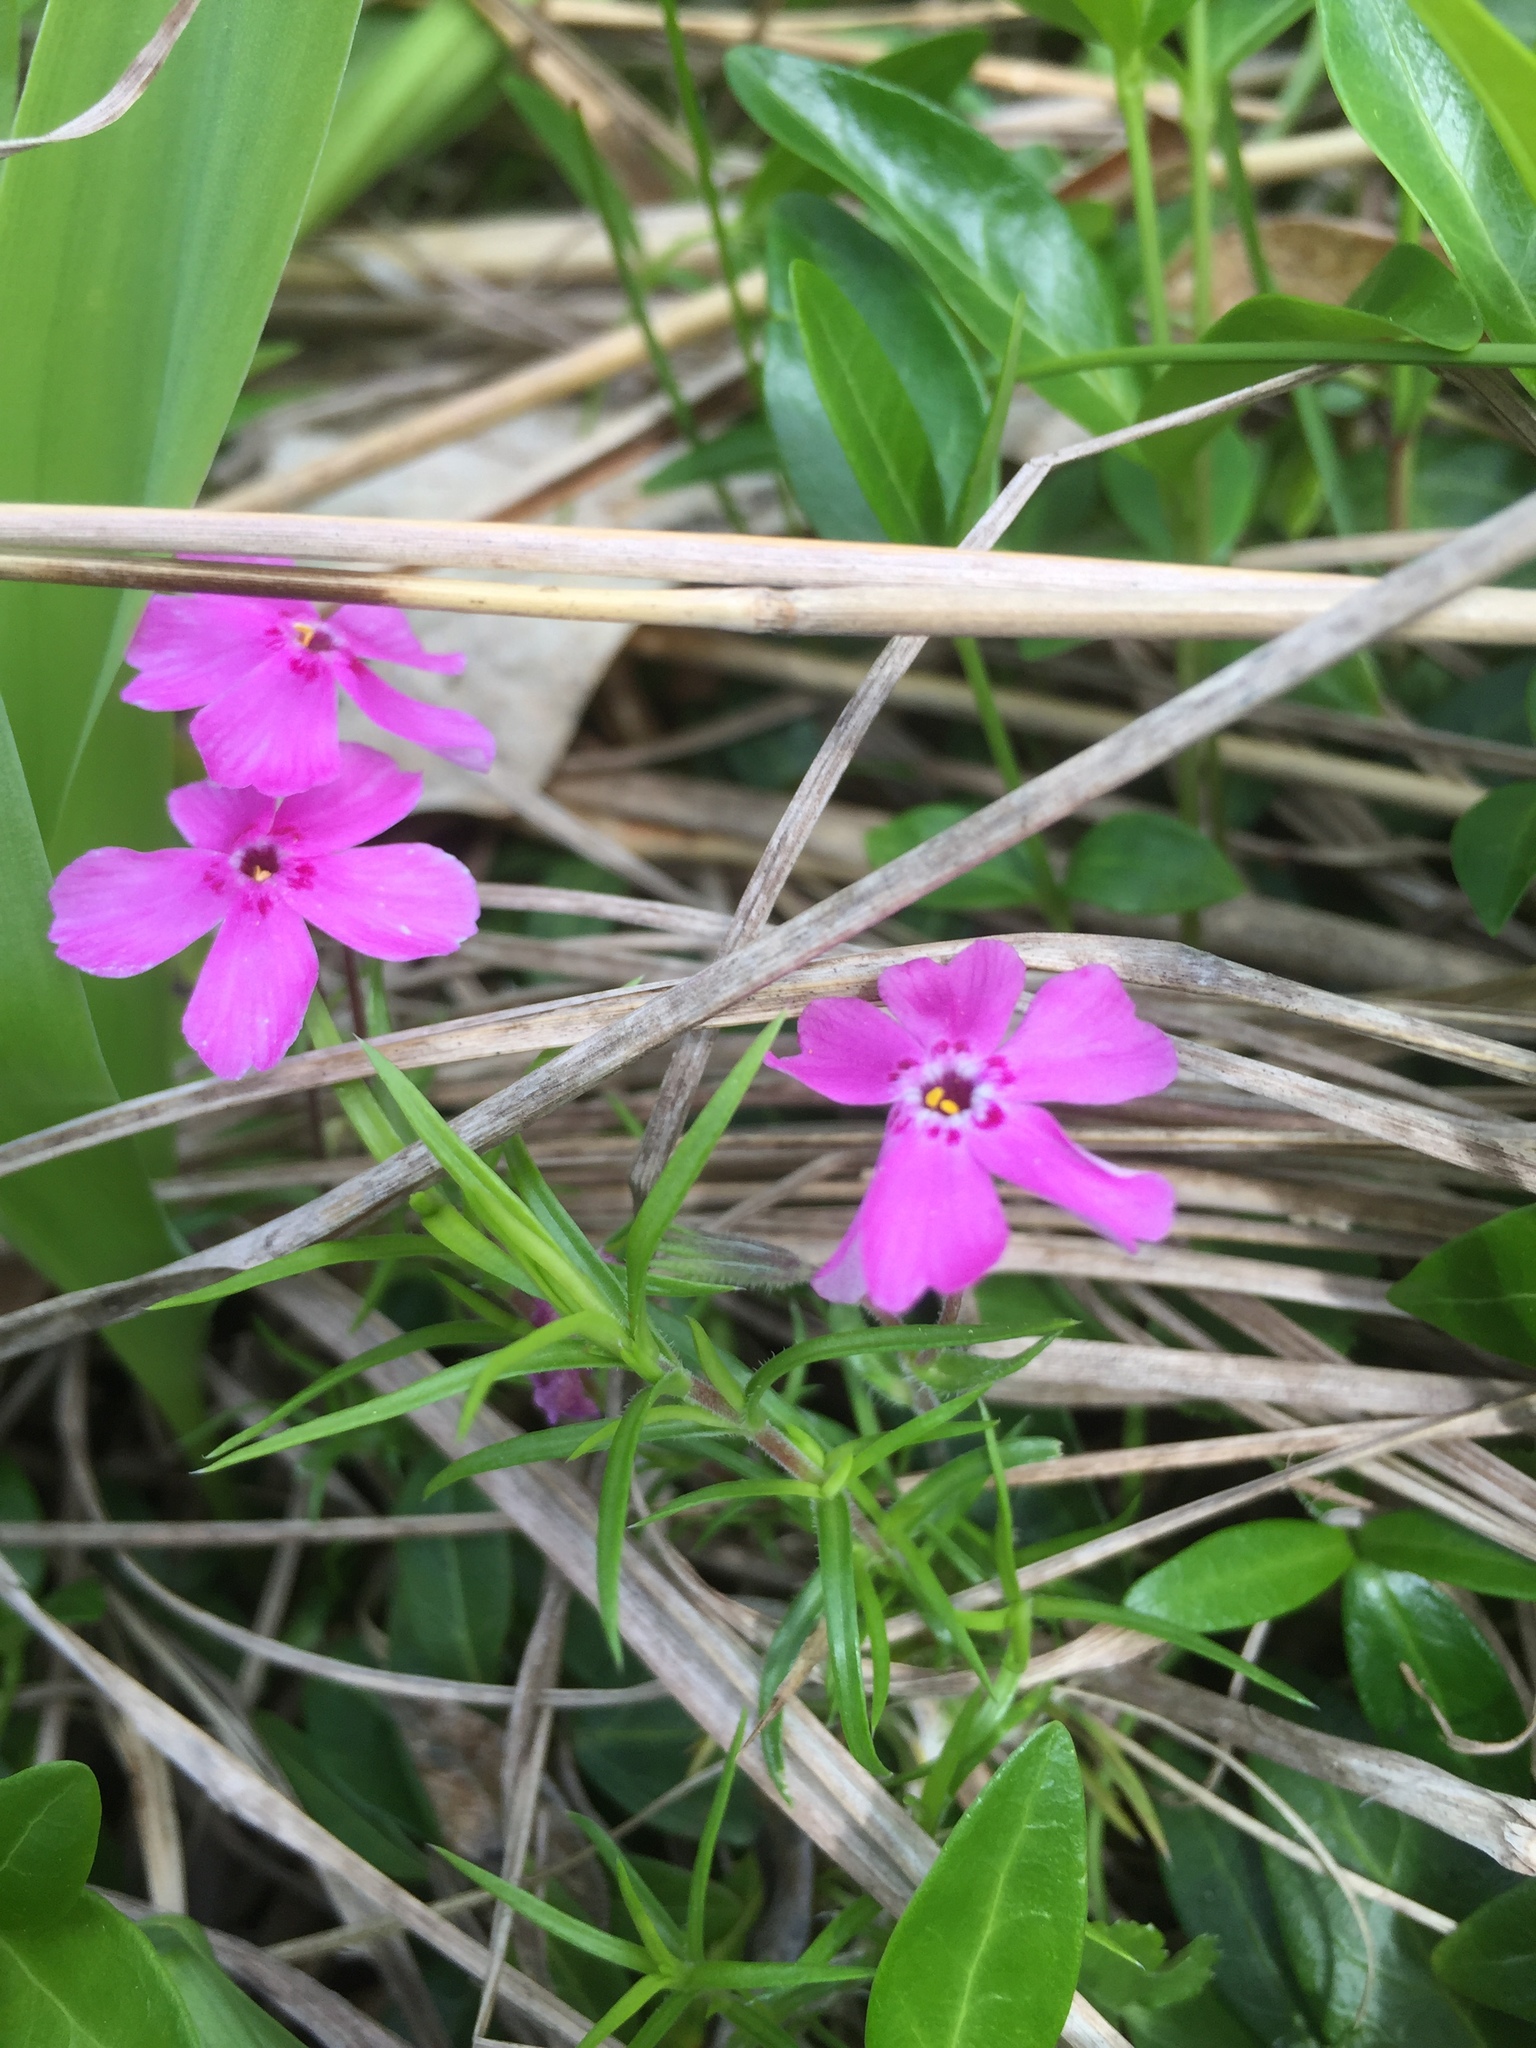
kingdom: Plantae
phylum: Tracheophyta
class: Magnoliopsida
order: Ericales
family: Polemoniaceae
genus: Phlox
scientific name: Phlox subulata
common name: Moss phlox
